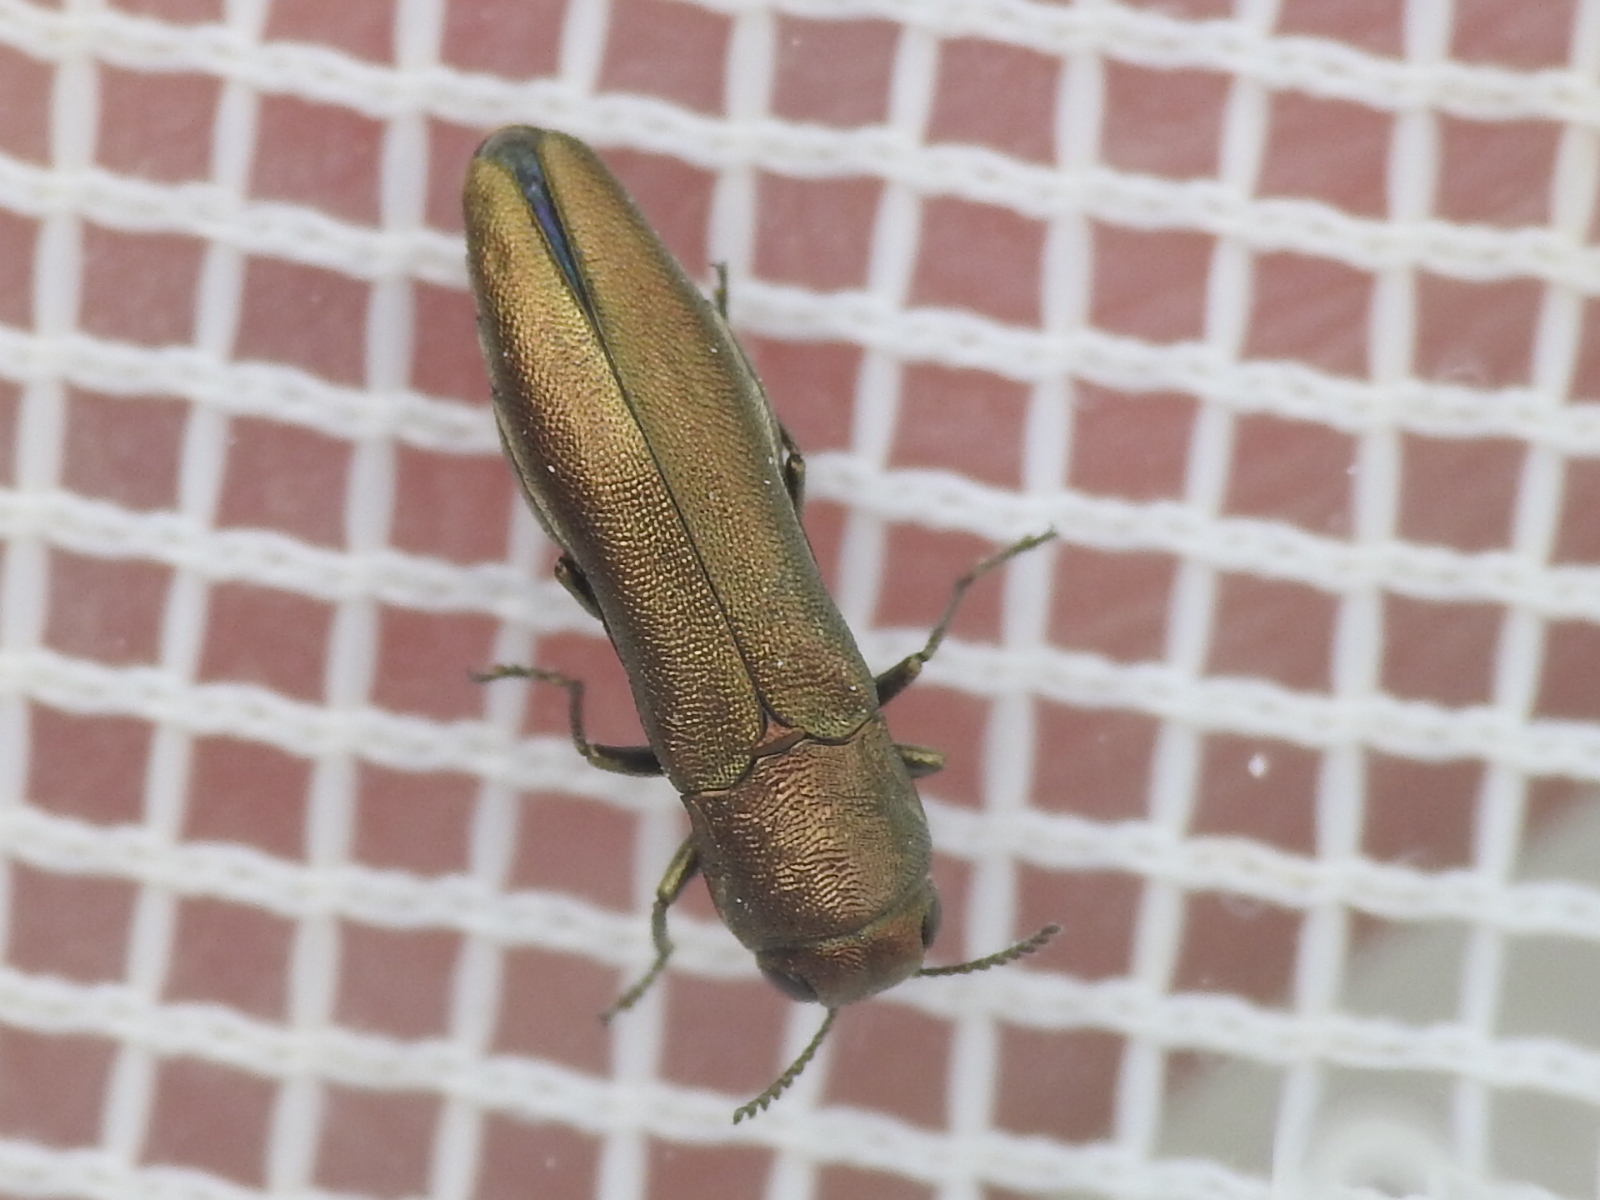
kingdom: Animalia
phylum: Arthropoda
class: Insecta
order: Coleoptera
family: Buprestidae
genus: Agrilus
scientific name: Agrilus lacustris
